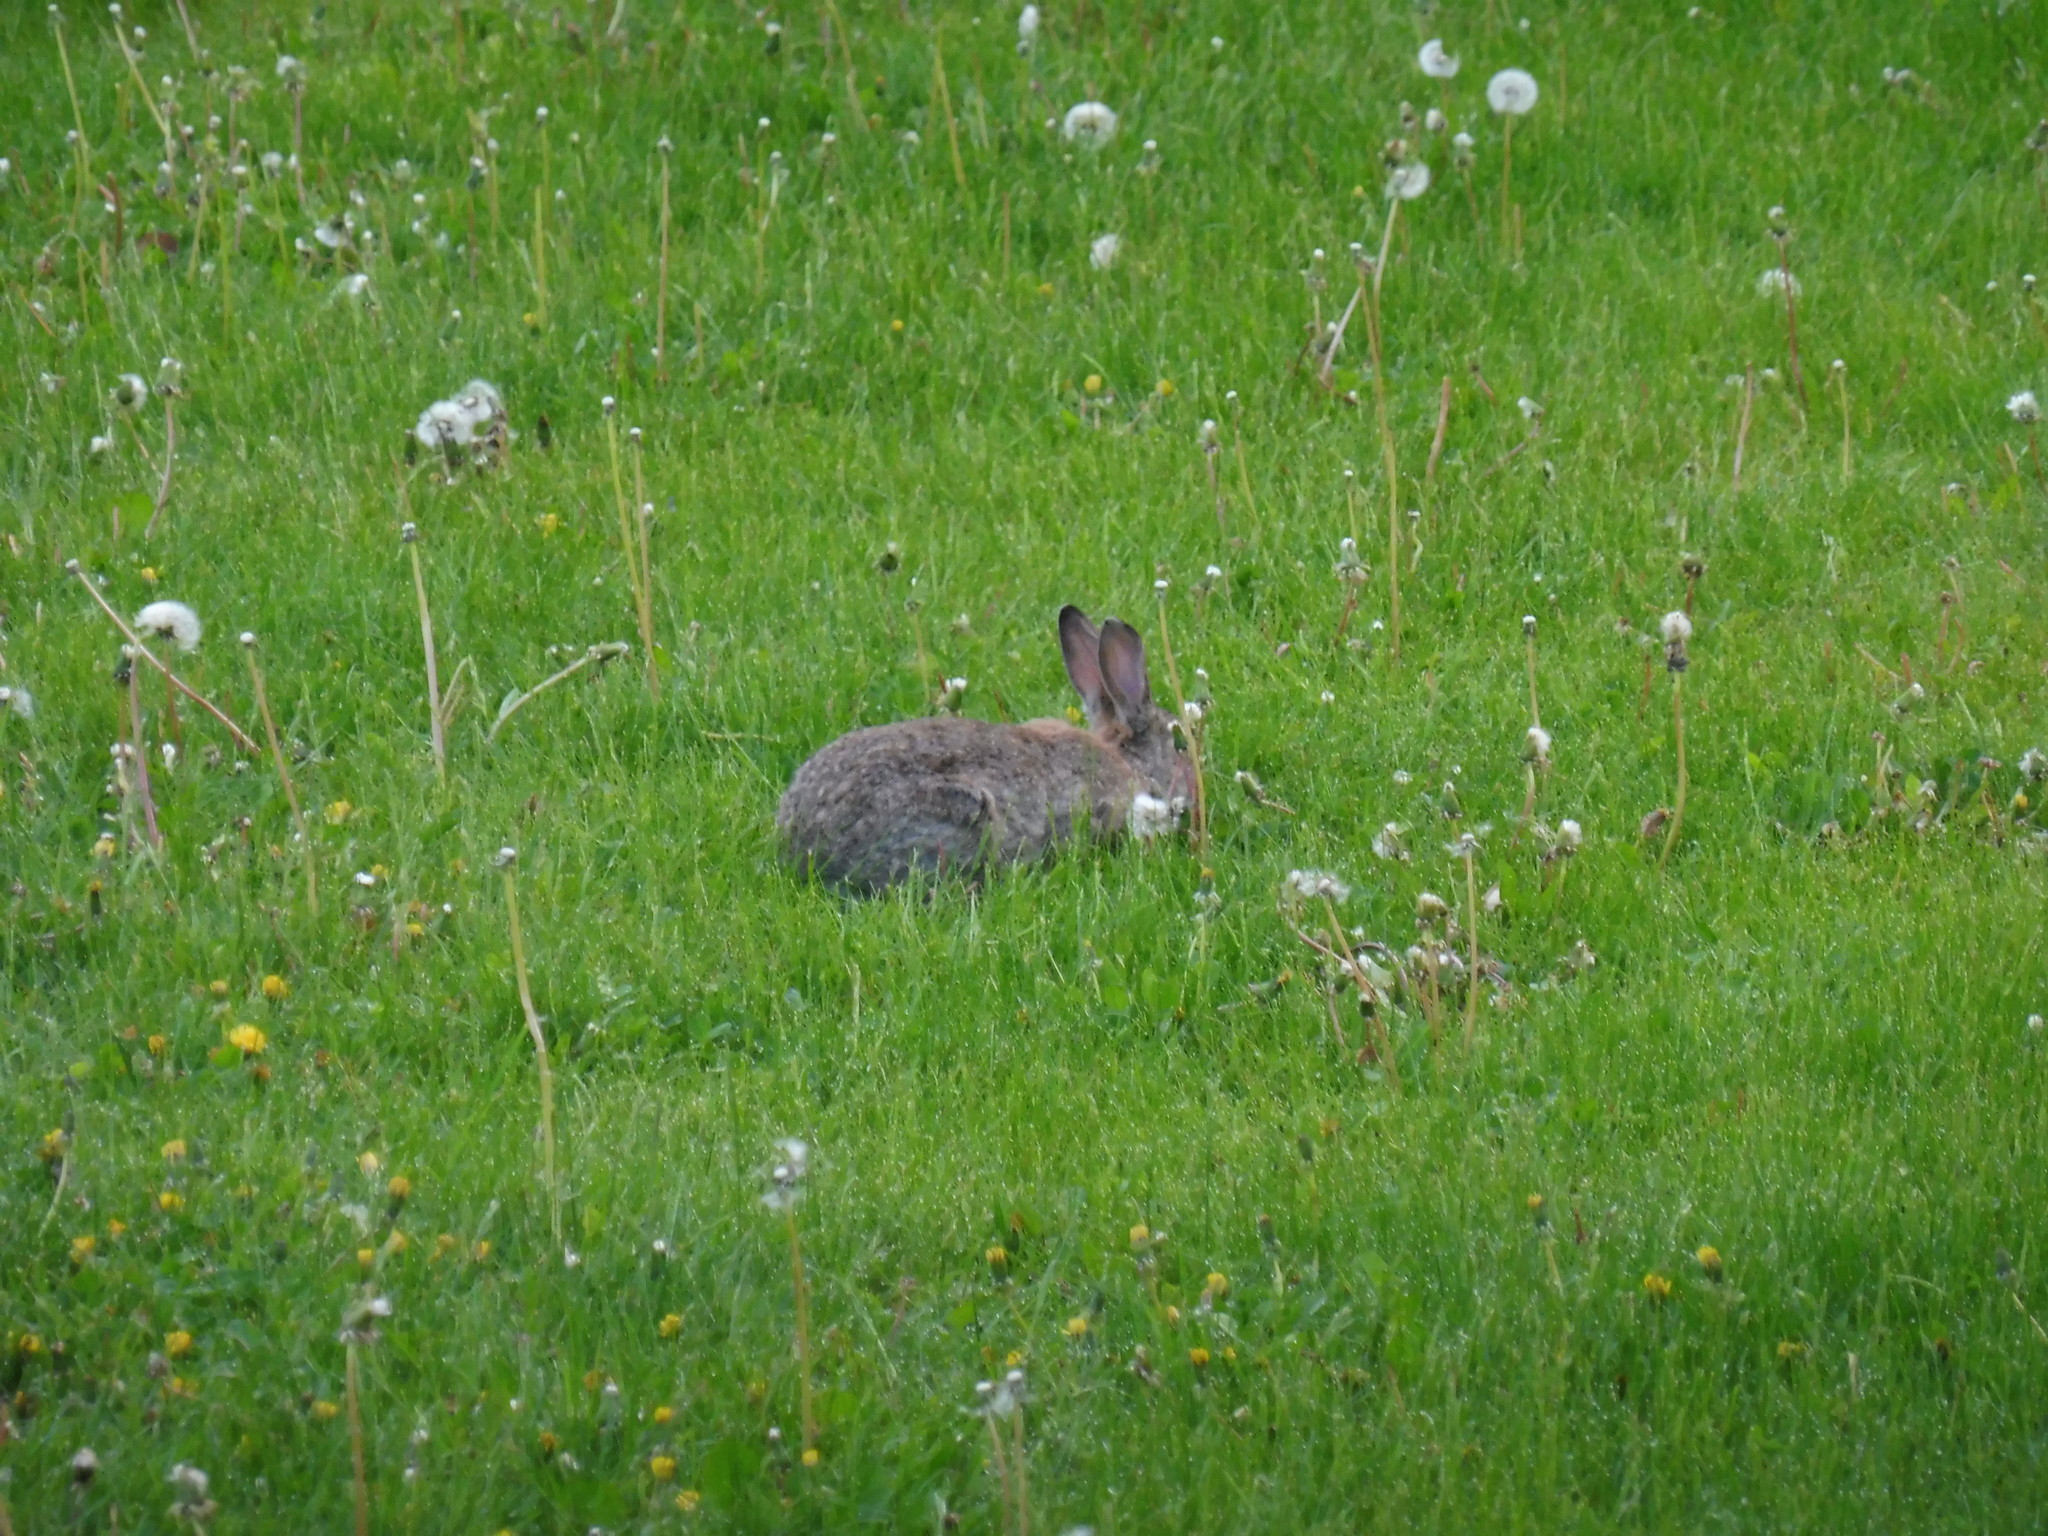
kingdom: Animalia
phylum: Chordata
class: Mammalia
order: Lagomorpha
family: Leporidae
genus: Oryctolagus
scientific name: Oryctolagus cuniculus
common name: European rabbit
